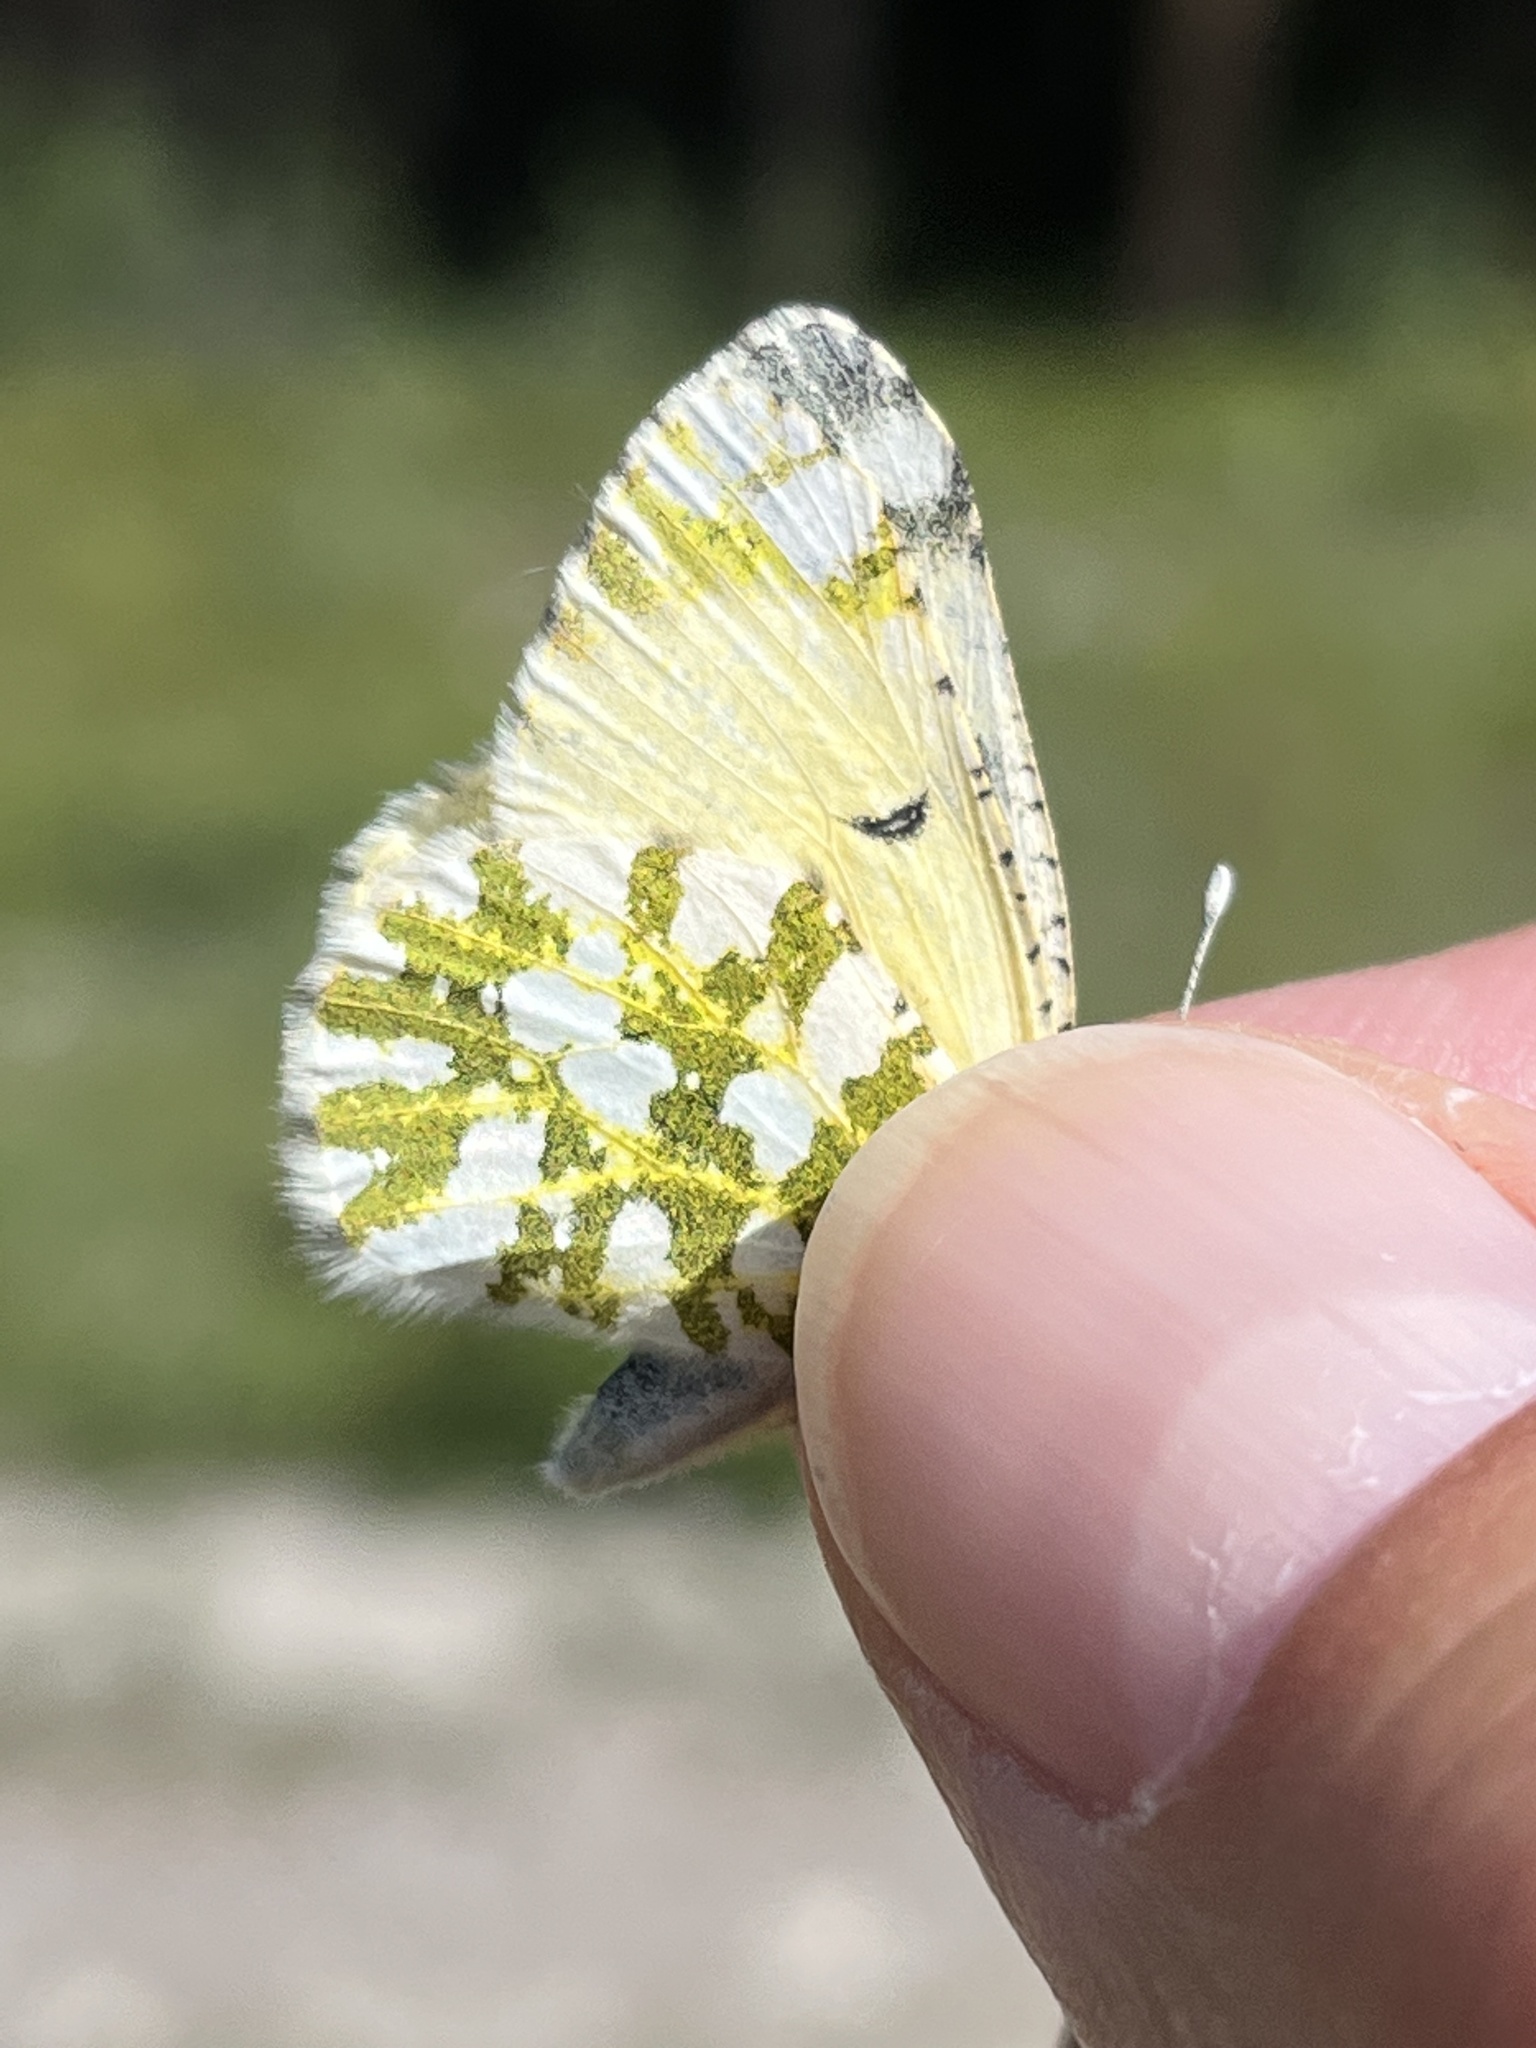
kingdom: Animalia
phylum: Arthropoda
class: Insecta
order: Lepidoptera
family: Pieridae
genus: Euchloe
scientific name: Euchloe ausonides
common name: Creamy marblewing
